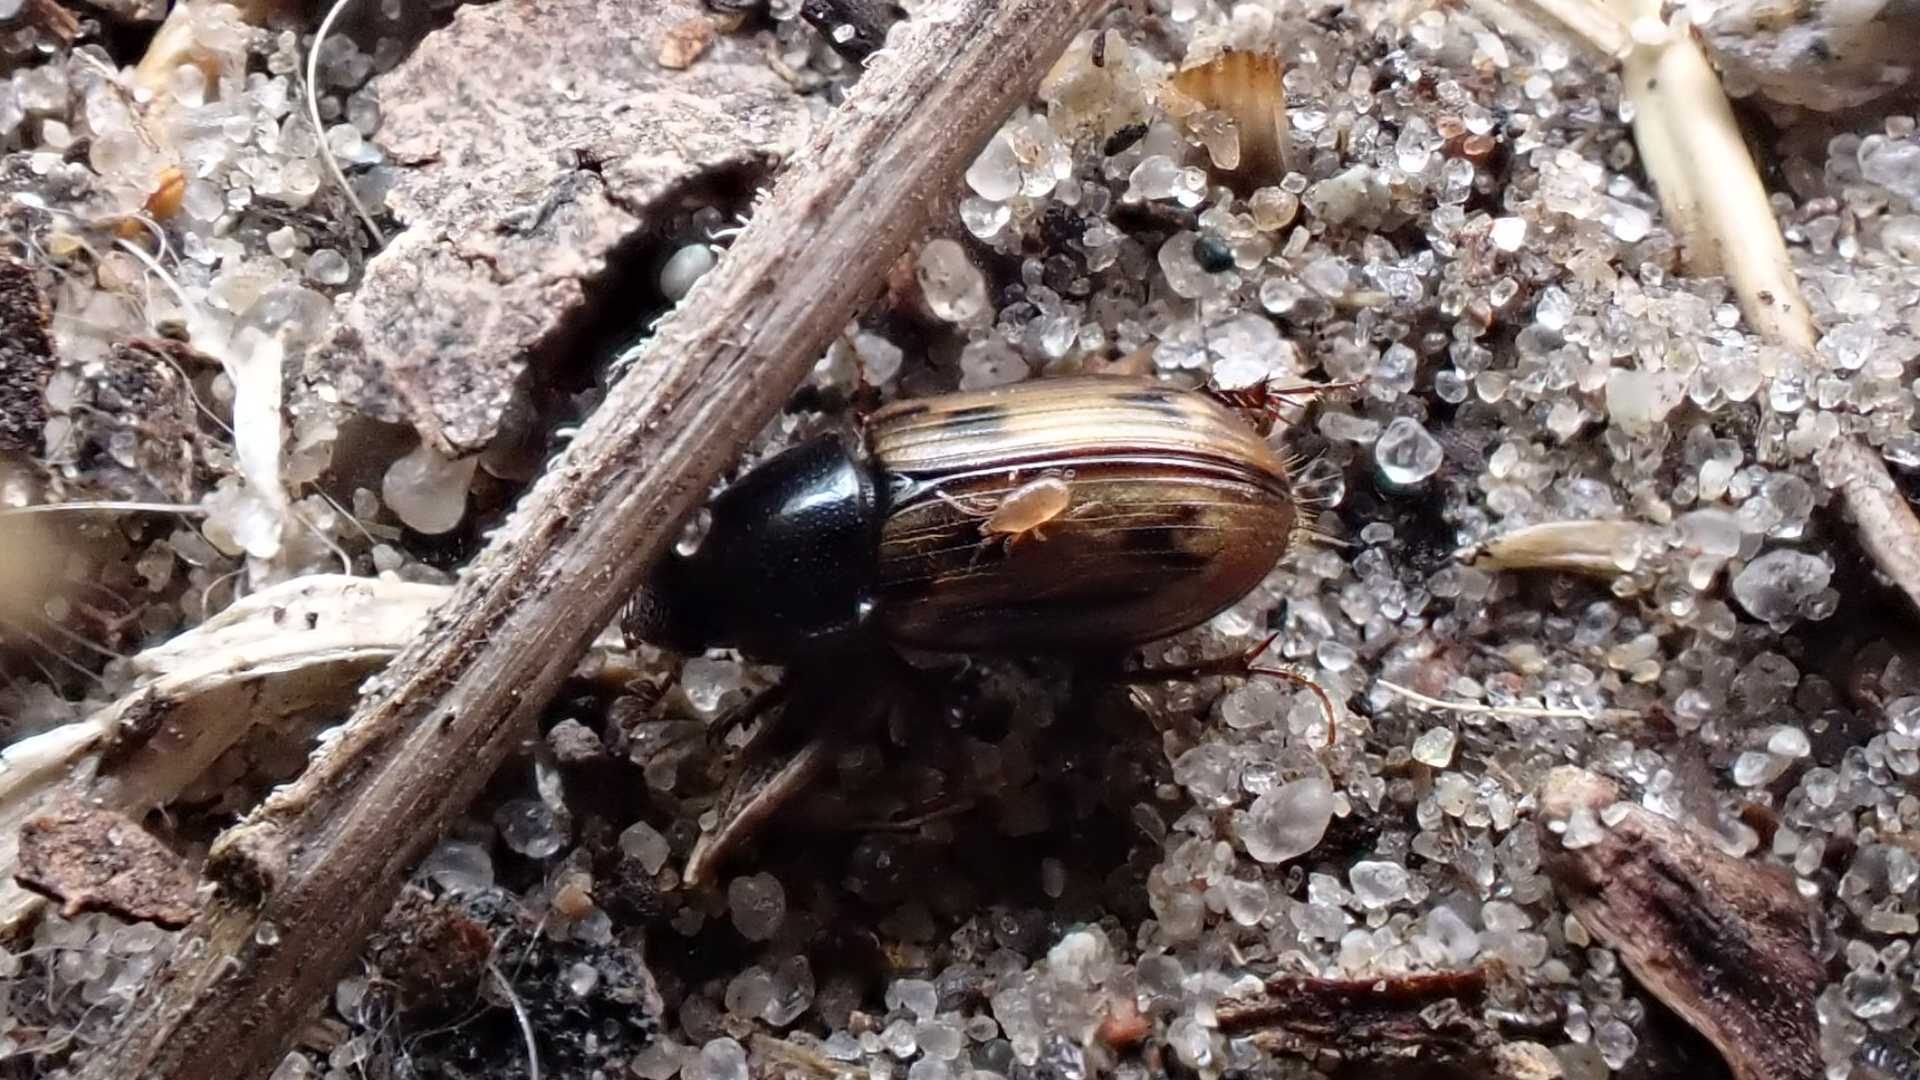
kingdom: Animalia
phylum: Arthropoda
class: Insecta
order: Coleoptera
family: Scarabaeidae
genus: Chilothorax
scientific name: Chilothorax distinctus
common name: Maculated dung beetle
